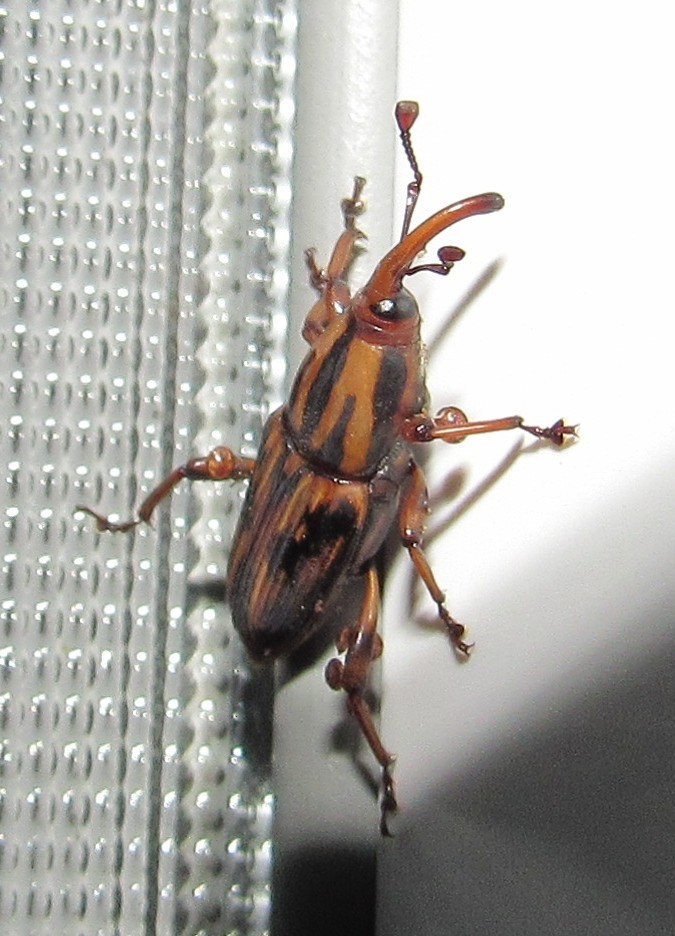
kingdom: Animalia
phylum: Arthropoda
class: Insecta
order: Coleoptera
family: Dryophthoridae
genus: Metamasius
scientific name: Metamasius hemipterus
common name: Weevil
